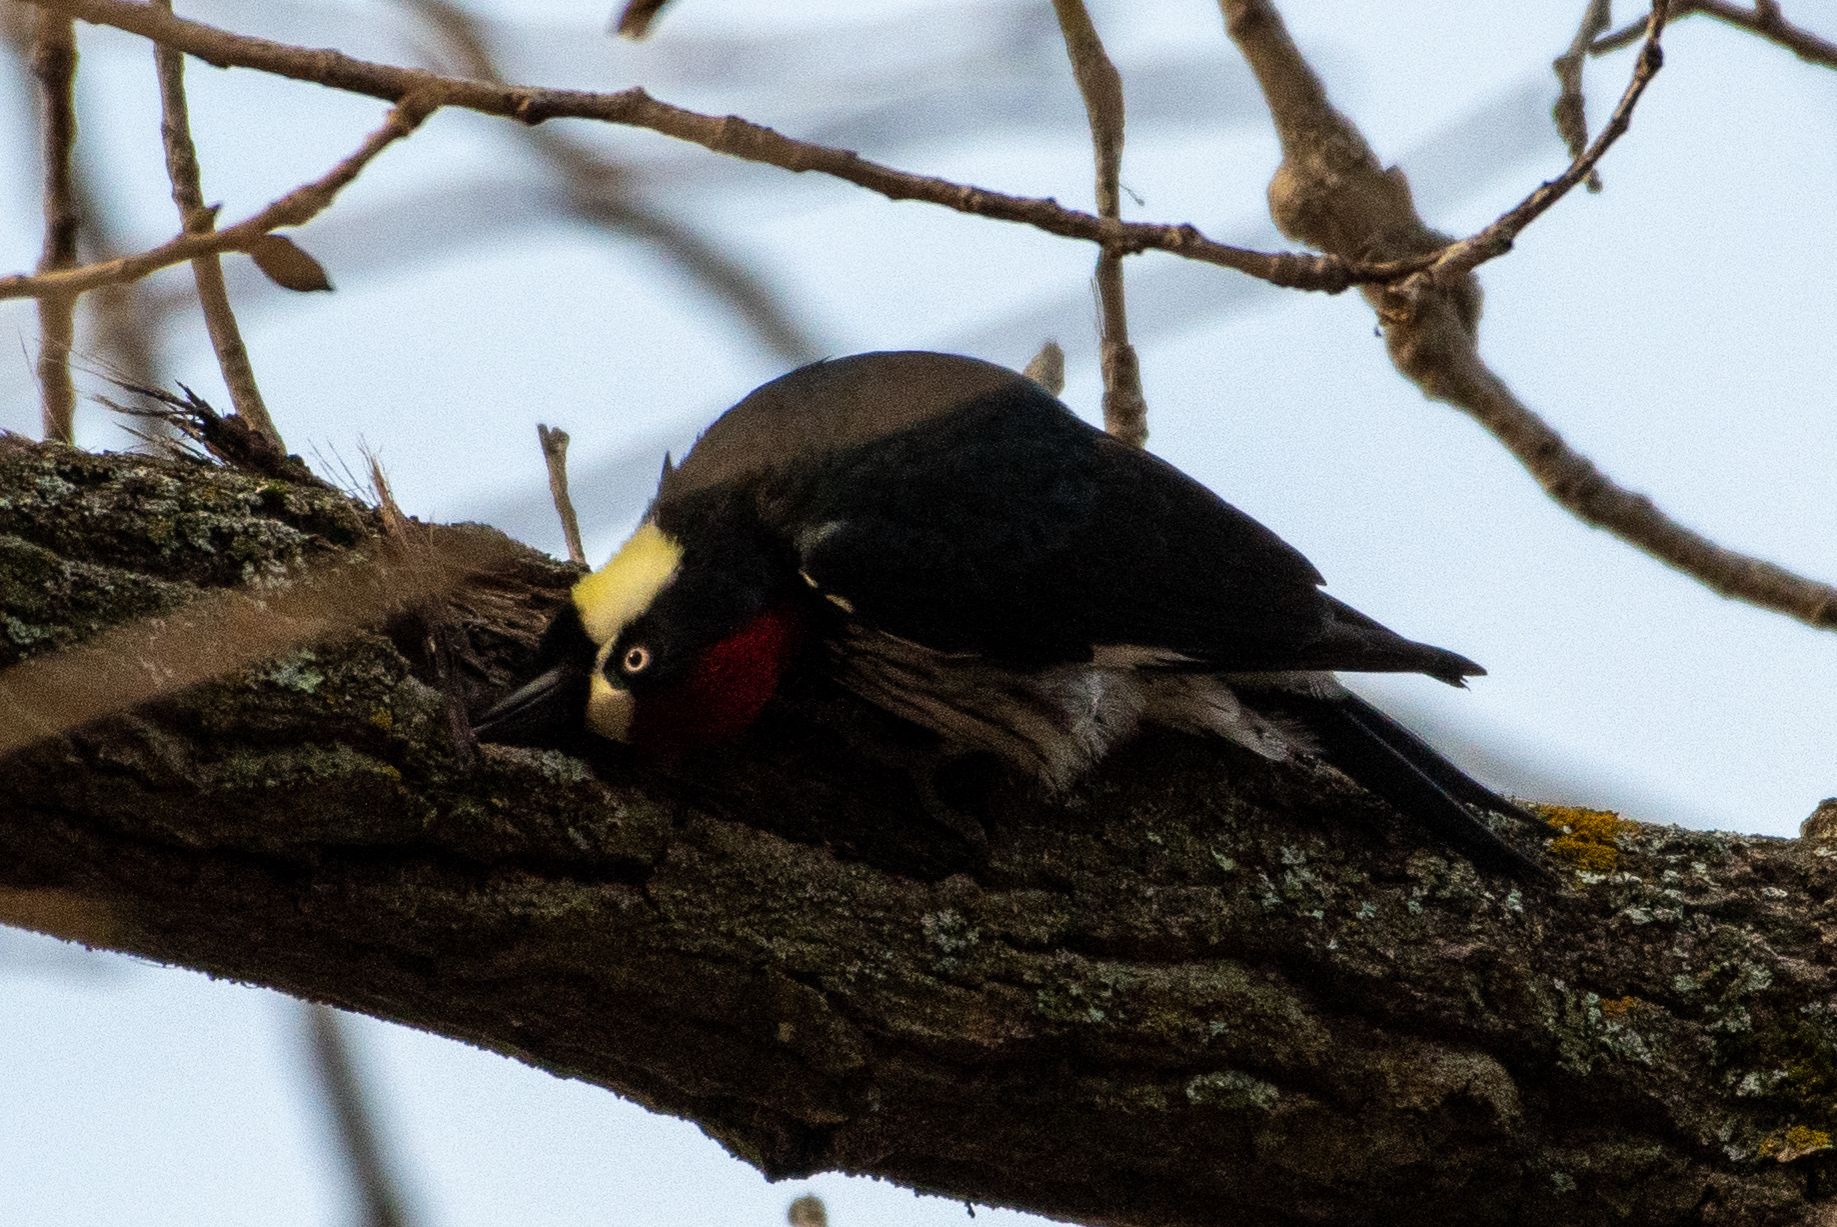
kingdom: Animalia
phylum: Chordata
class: Aves
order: Piciformes
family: Picidae
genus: Melanerpes
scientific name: Melanerpes formicivorus
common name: Acorn woodpecker
